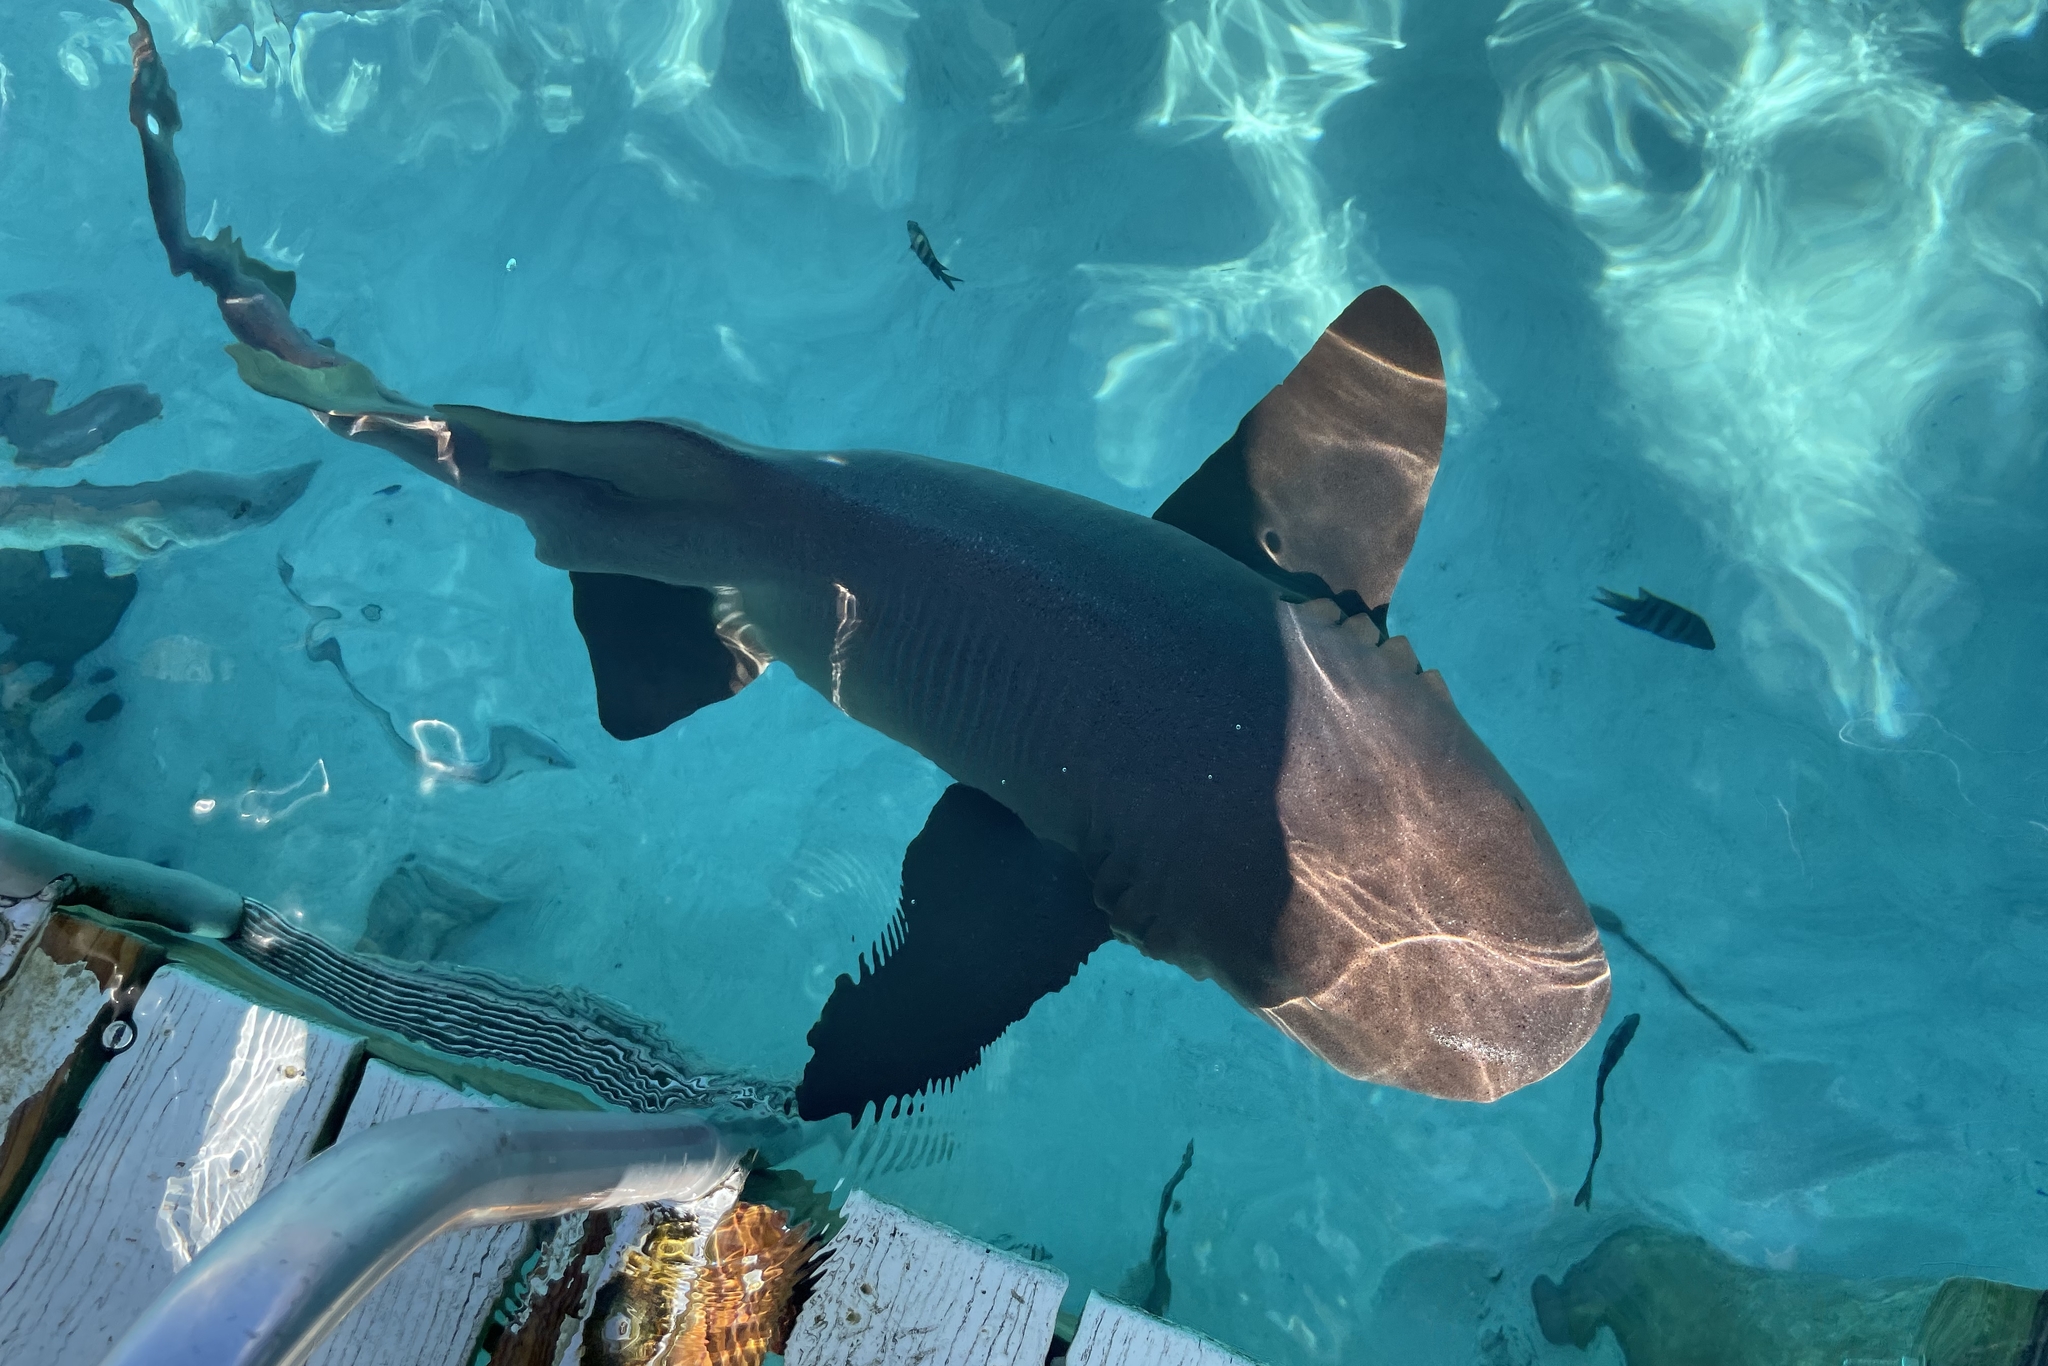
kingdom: Animalia
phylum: Chordata
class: Elasmobranchii
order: Orectolobiformes
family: Ginglymostomatidae
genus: Ginglymostoma
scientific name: Ginglymostoma cirratum
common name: Nurse shark
